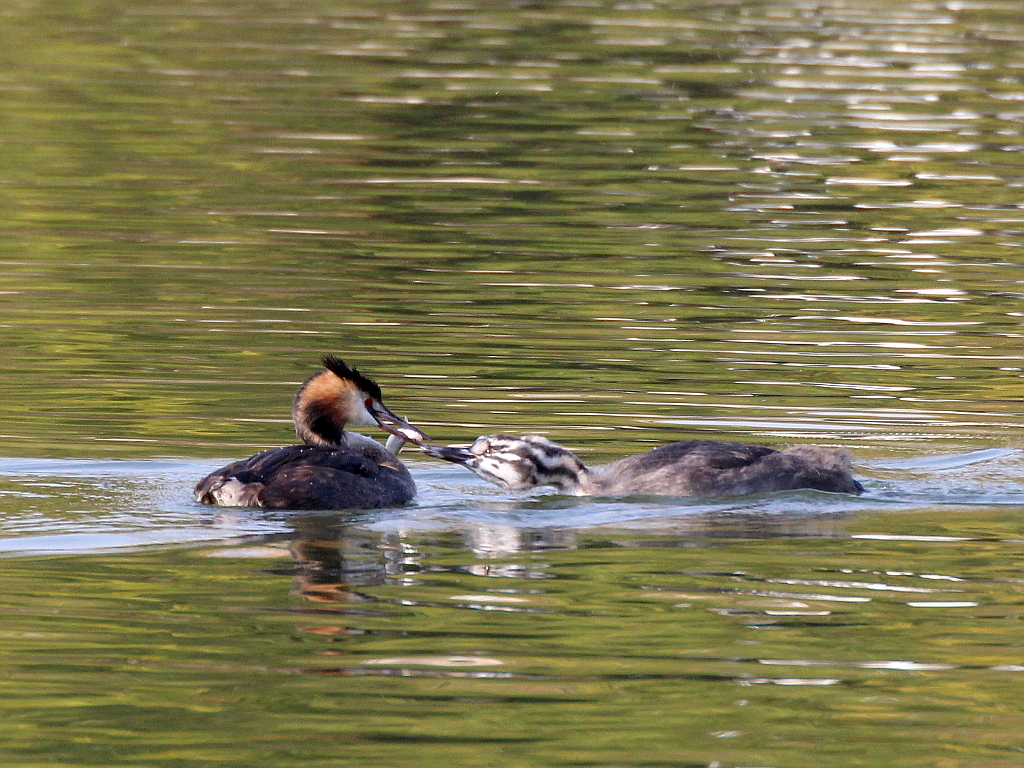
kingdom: Animalia
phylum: Chordata
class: Aves
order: Podicipediformes
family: Podicipedidae
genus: Podiceps
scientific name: Podiceps cristatus
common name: Great crested grebe
